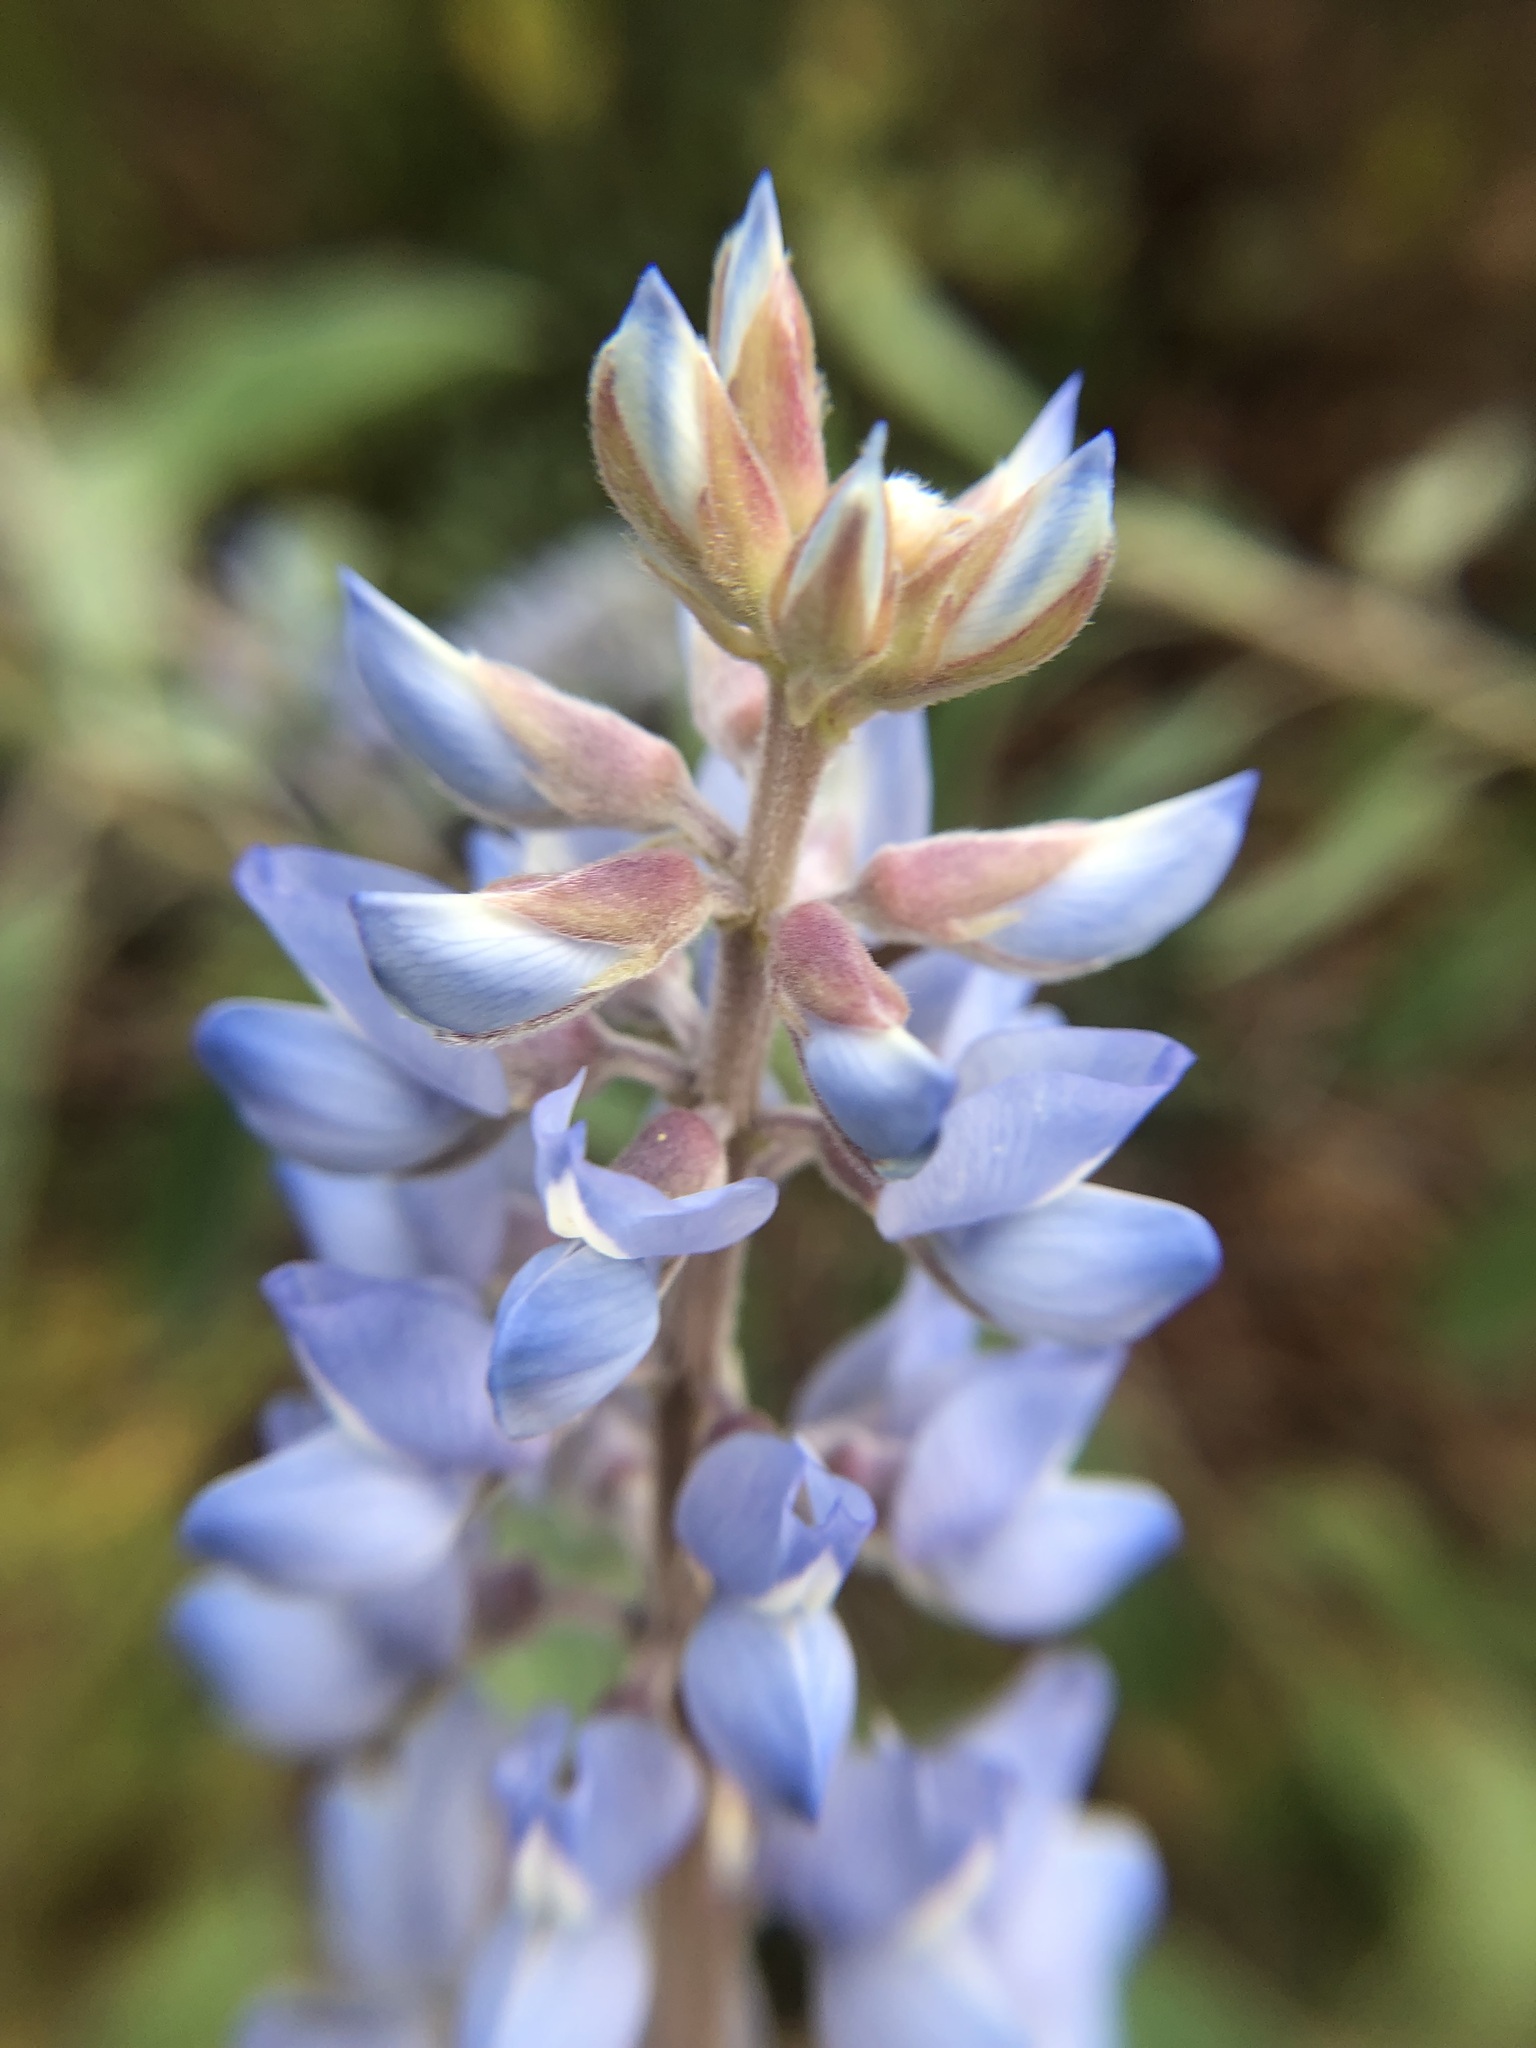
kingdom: Plantae
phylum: Tracheophyta
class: Magnoliopsida
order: Fabales
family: Fabaceae
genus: Lupinus
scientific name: Lupinus
